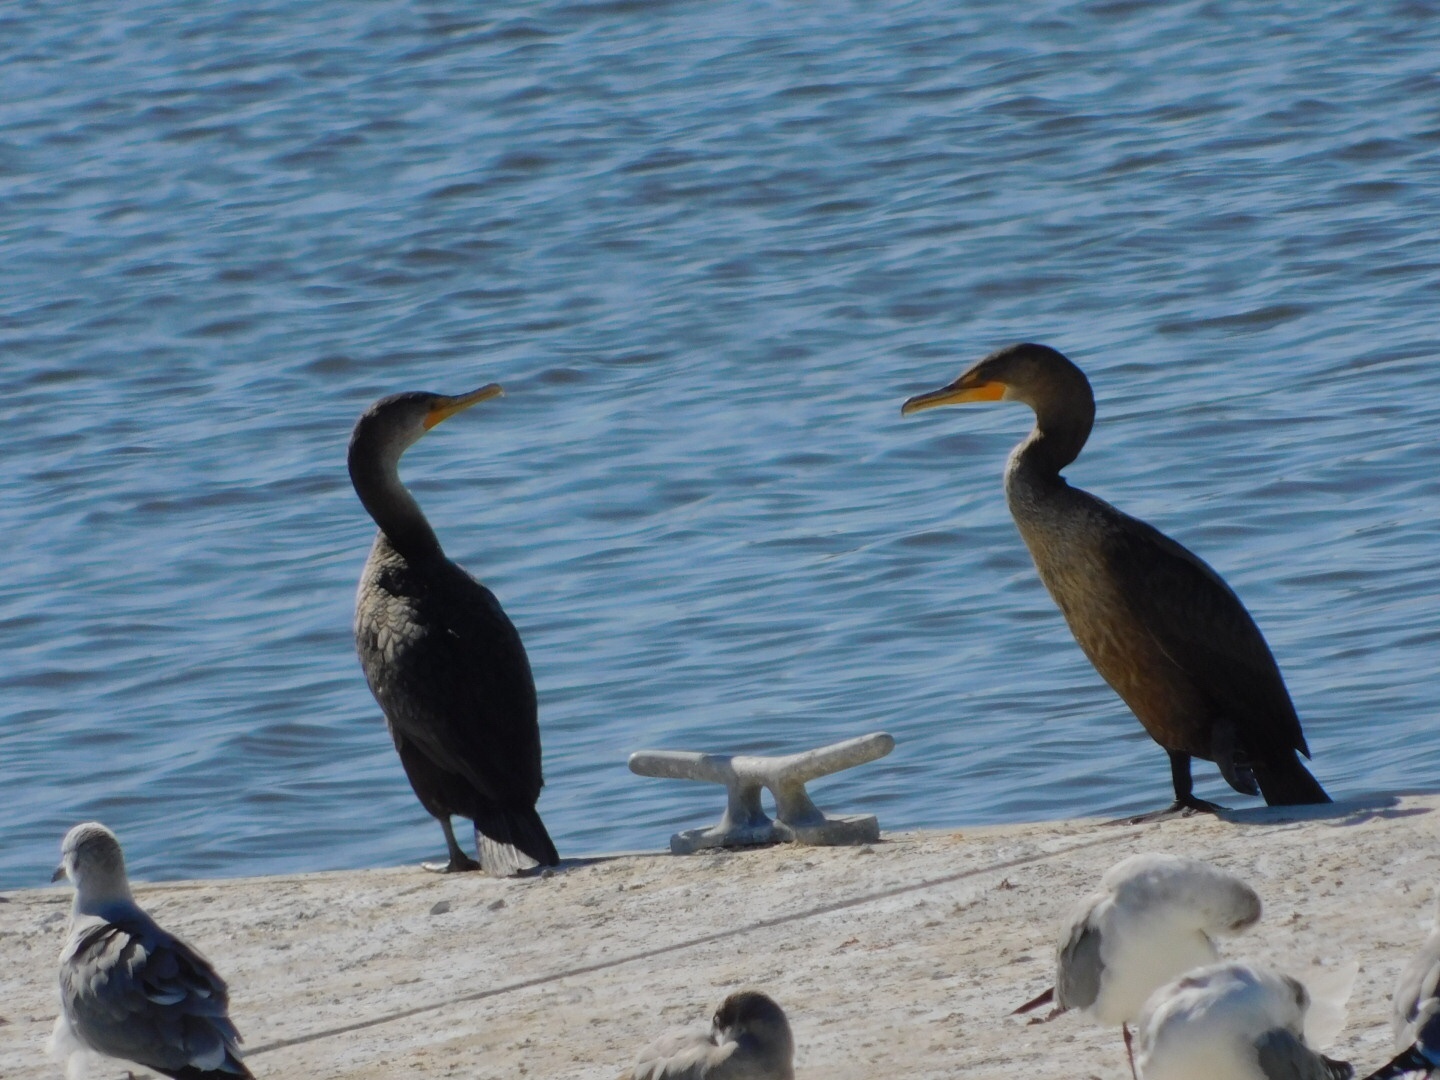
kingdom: Animalia
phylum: Chordata
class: Aves
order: Suliformes
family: Phalacrocoracidae
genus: Phalacrocorax
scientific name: Phalacrocorax auritus
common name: Double-crested cormorant
